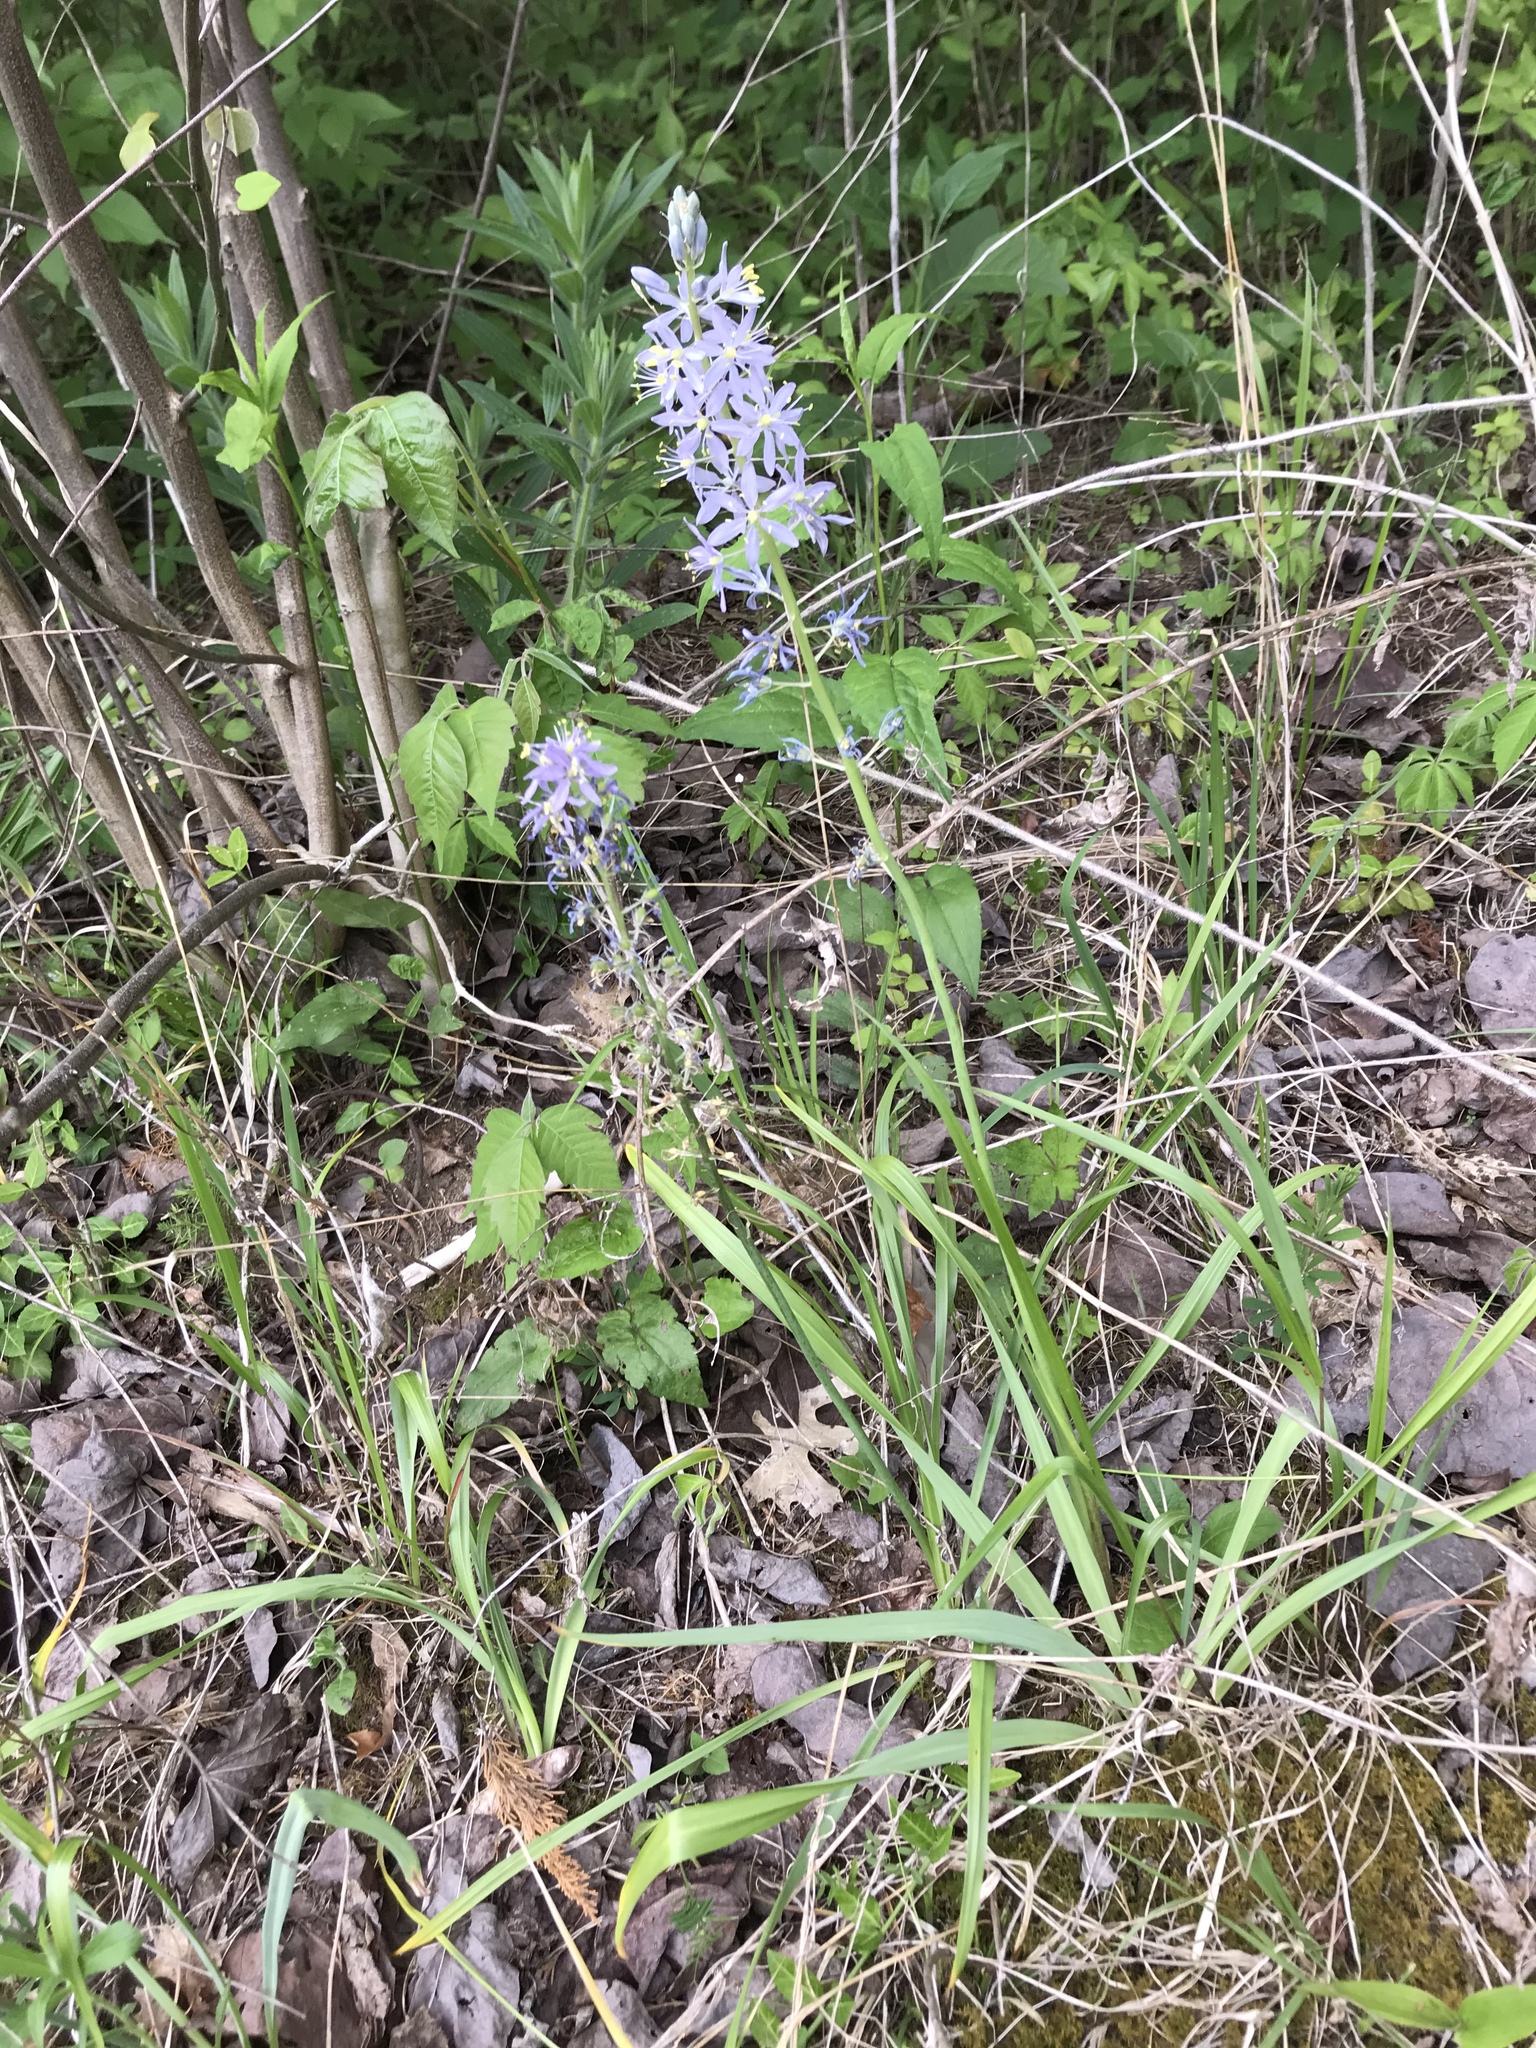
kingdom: Plantae
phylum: Tracheophyta
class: Liliopsida
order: Asparagales
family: Asparagaceae
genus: Camassia
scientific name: Camassia scilloides
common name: Wild hyacinth
